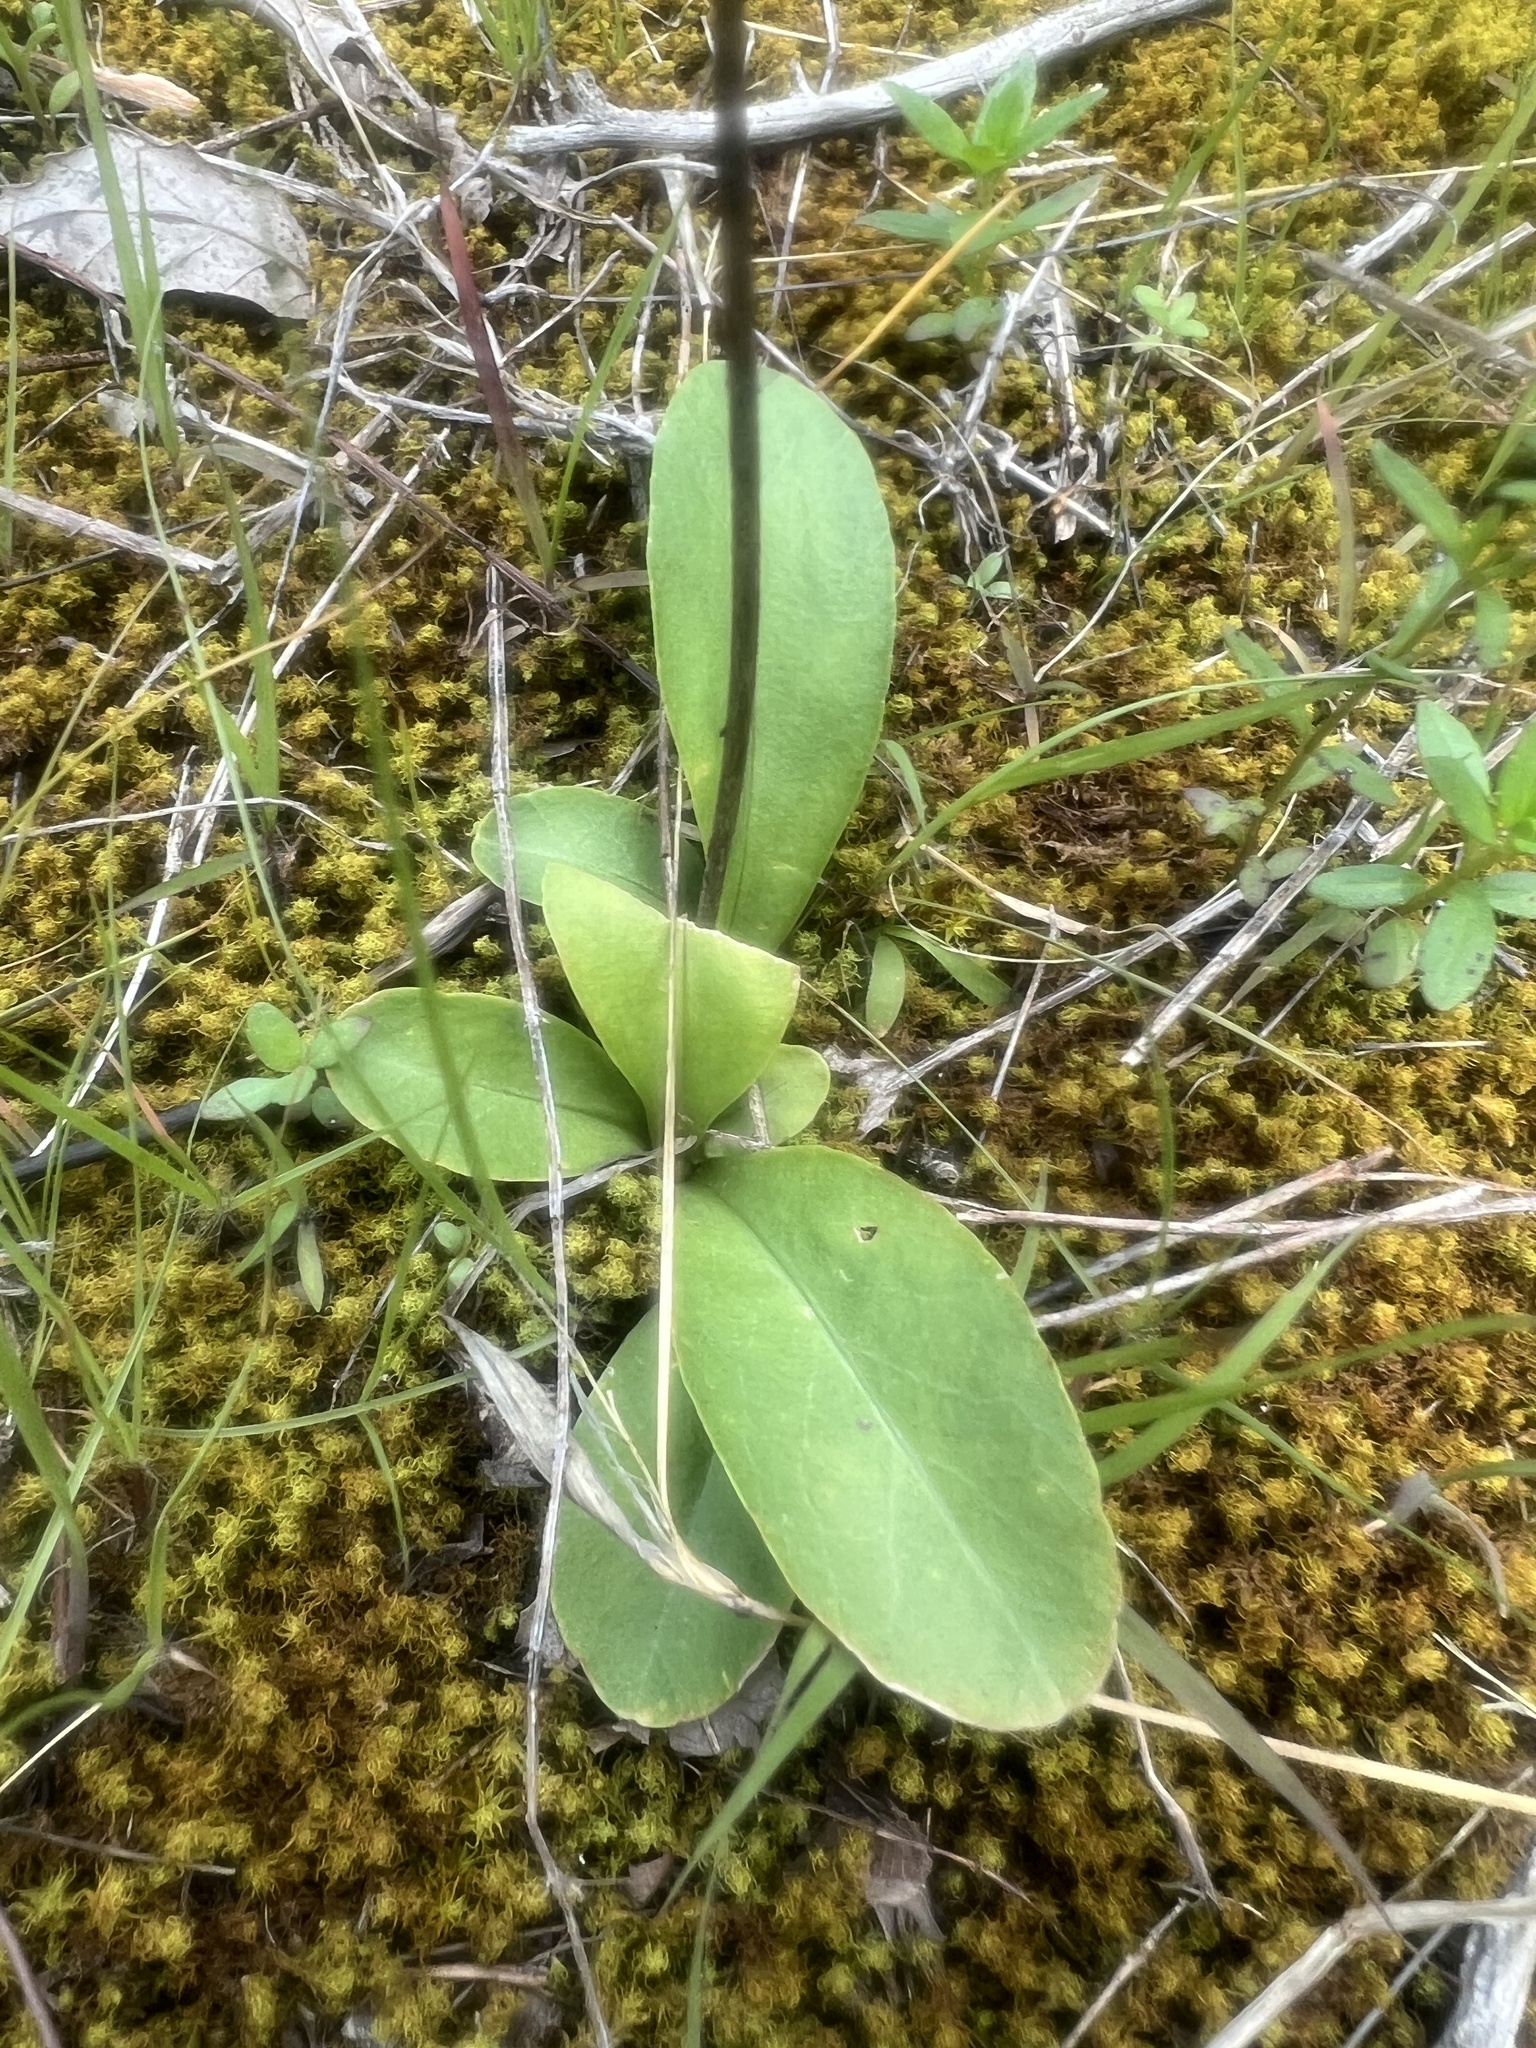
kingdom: Plantae
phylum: Tracheophyta
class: Magnoliopsida
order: Ericales
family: Primulaceae
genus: Dodecatheon
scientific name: Dodecatheon meadia
